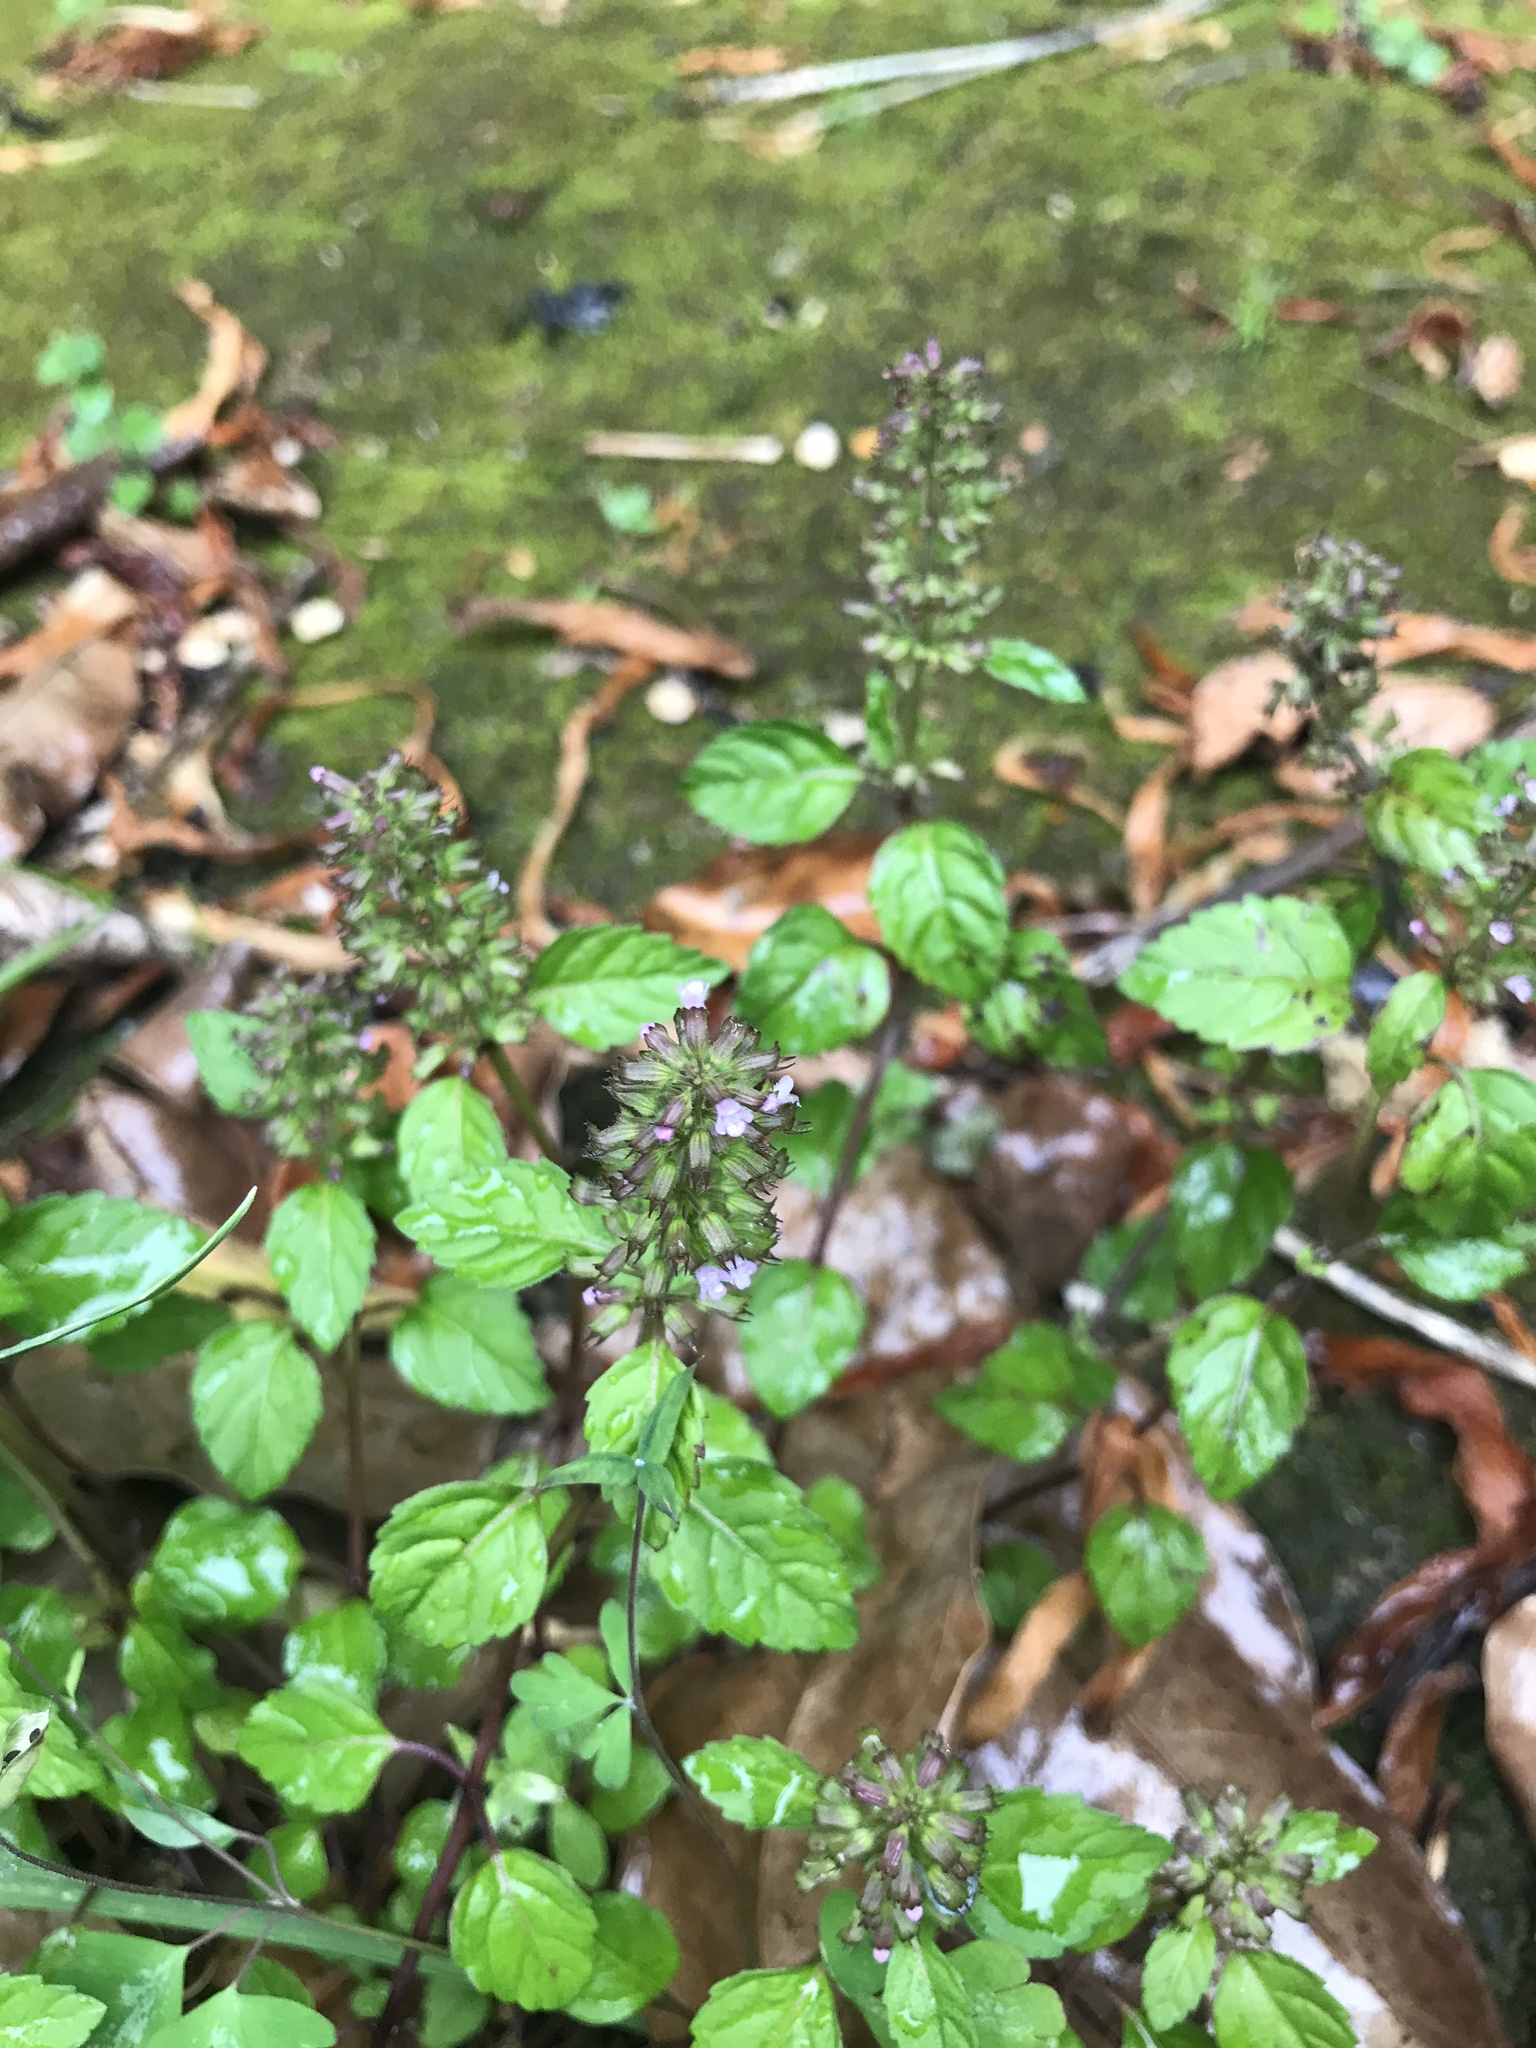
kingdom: Plantae
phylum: Tracheophyta
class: Magnoliopsida
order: Lamiales
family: Lamiaceae
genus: Clinopodium
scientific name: Clinopodium gracile
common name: Slender wild basil
